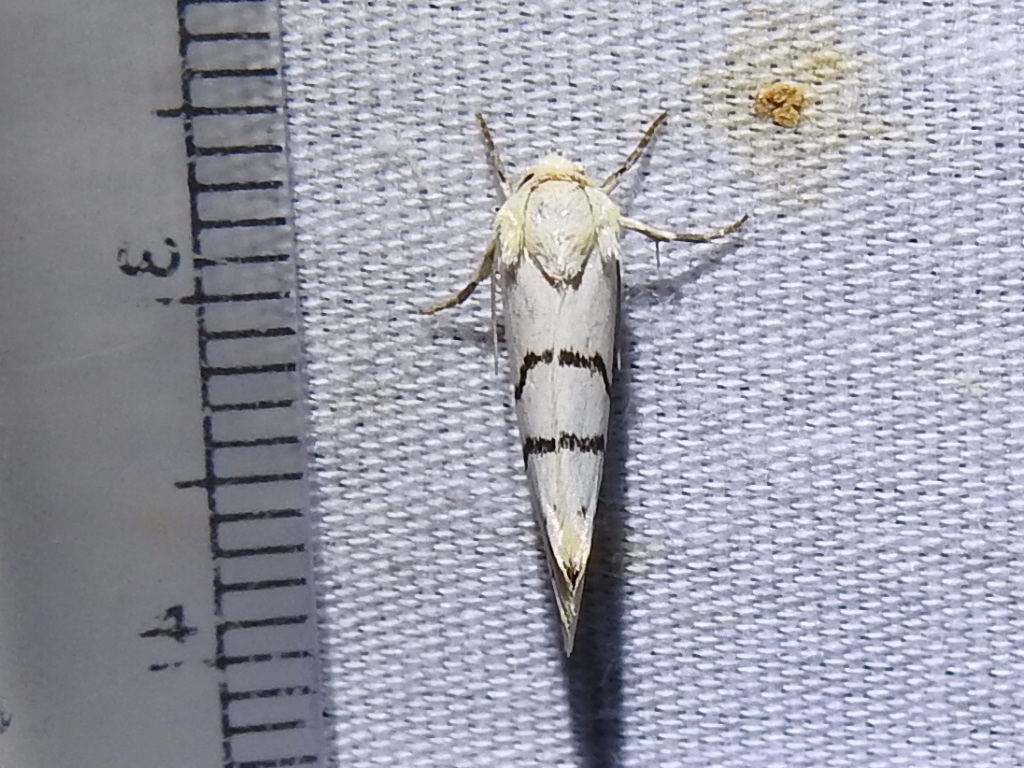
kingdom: Animalia
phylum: Arthropoda
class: Insecta
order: Lepidoptera
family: Noctuidae
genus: Lineostriastiria
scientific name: Lineostriastiria sexseriata
